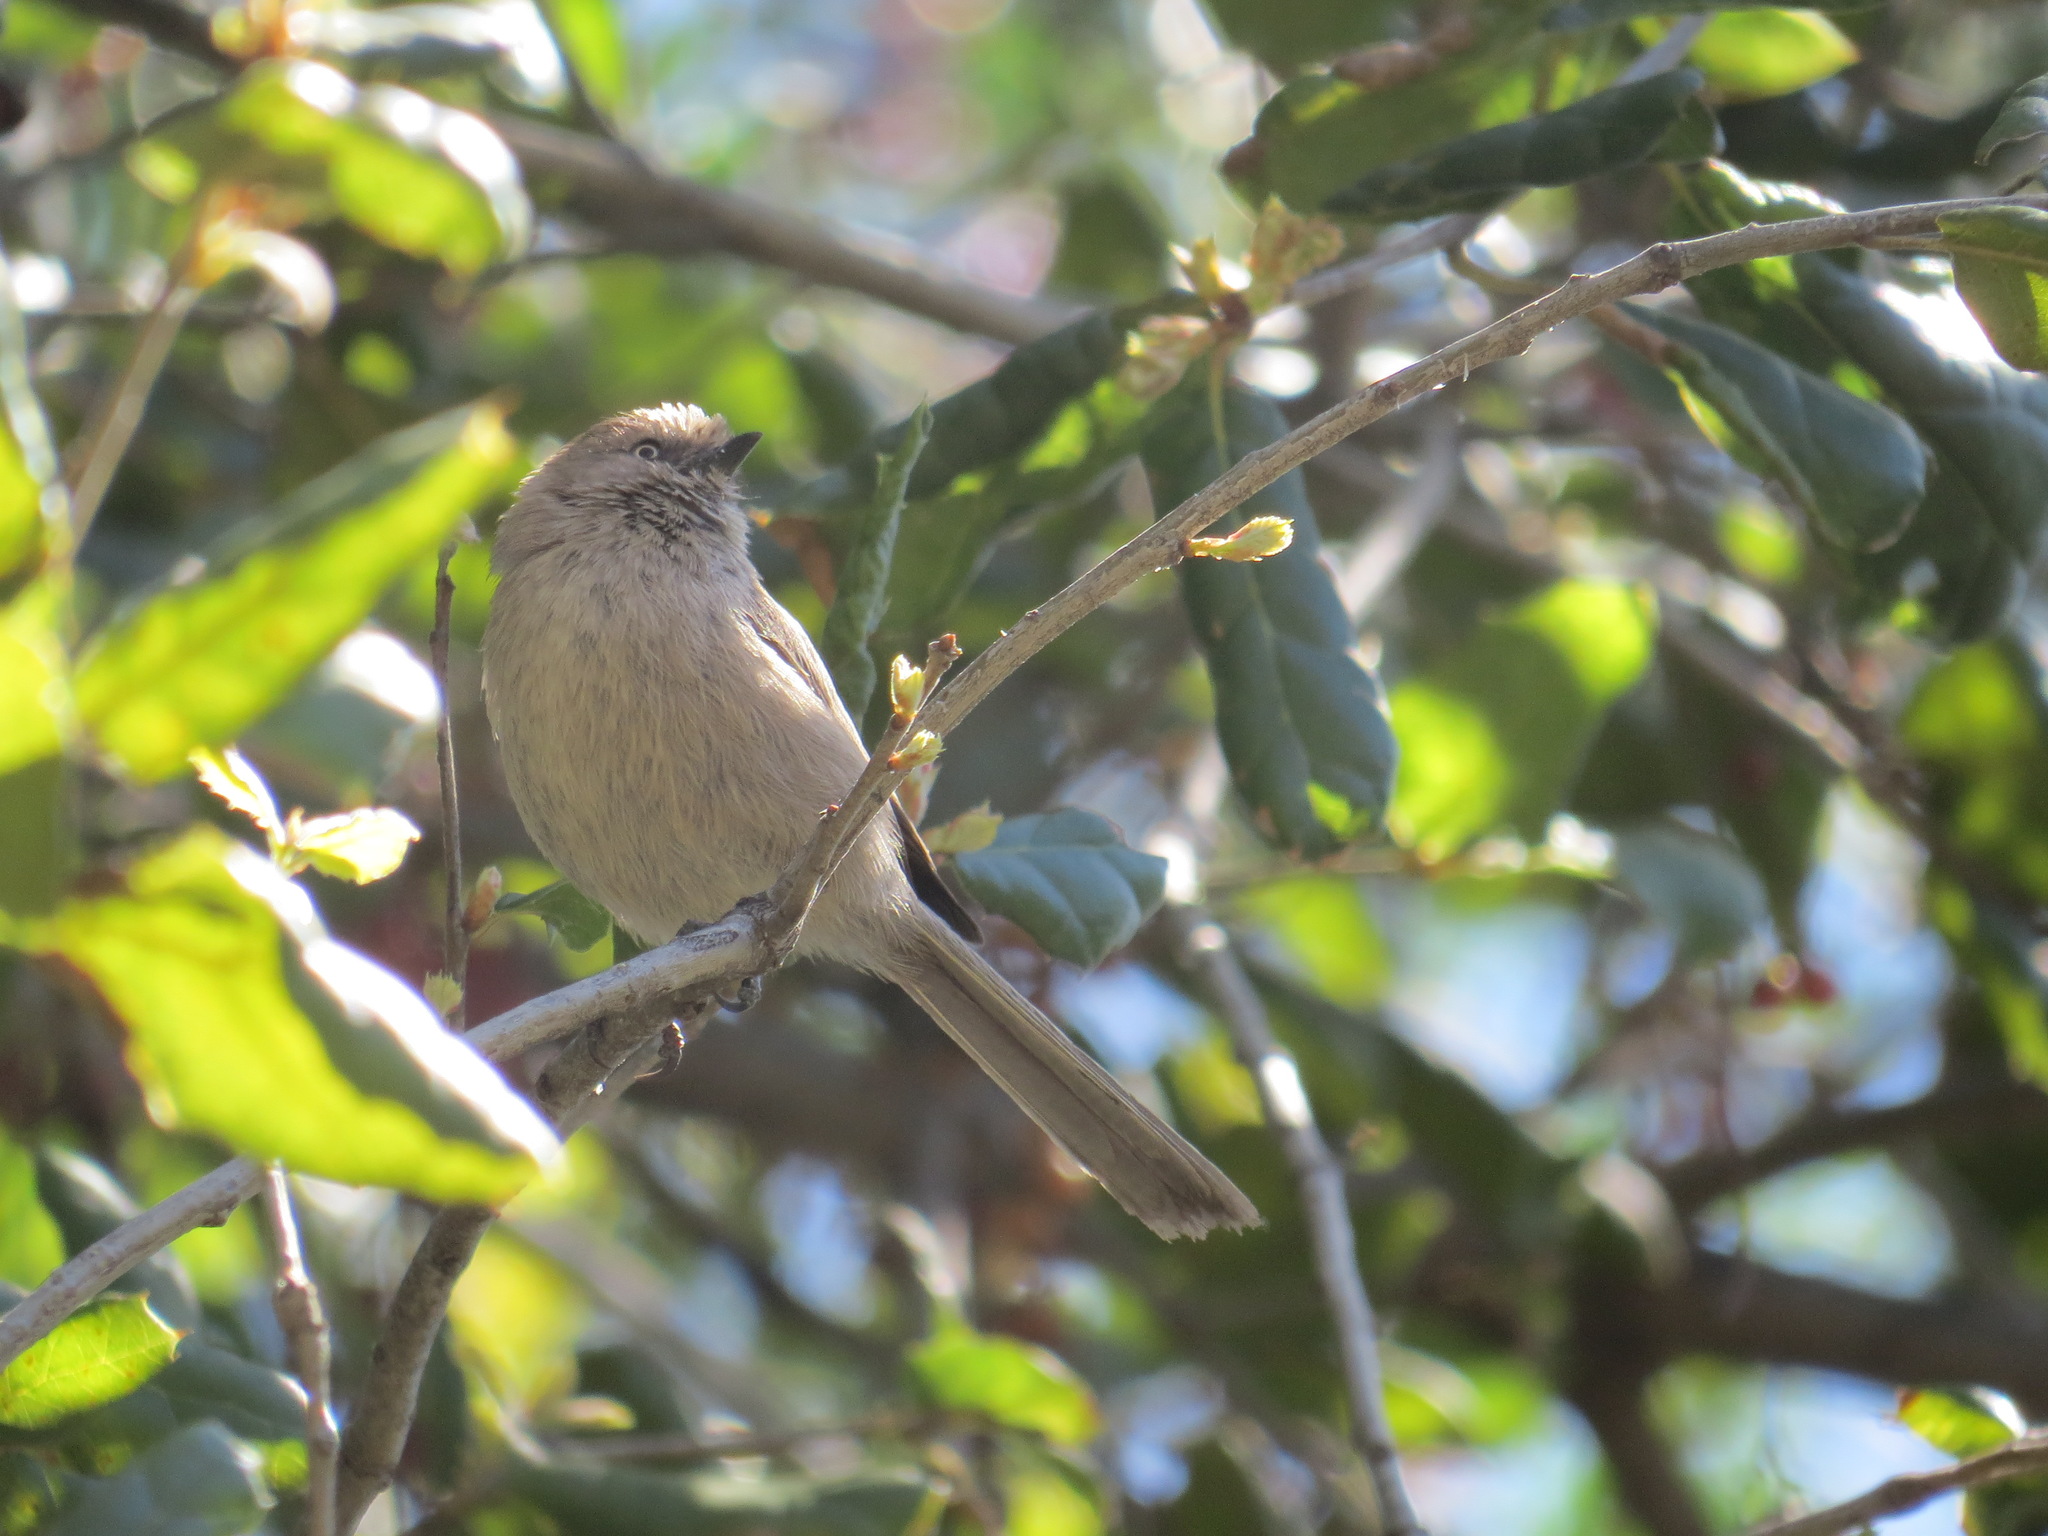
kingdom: Animalia
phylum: Chordata
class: Aves
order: Passeriformes
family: Aegithalidae
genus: Psaltriparus
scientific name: Psaltriparus minimus
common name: American bushtit
